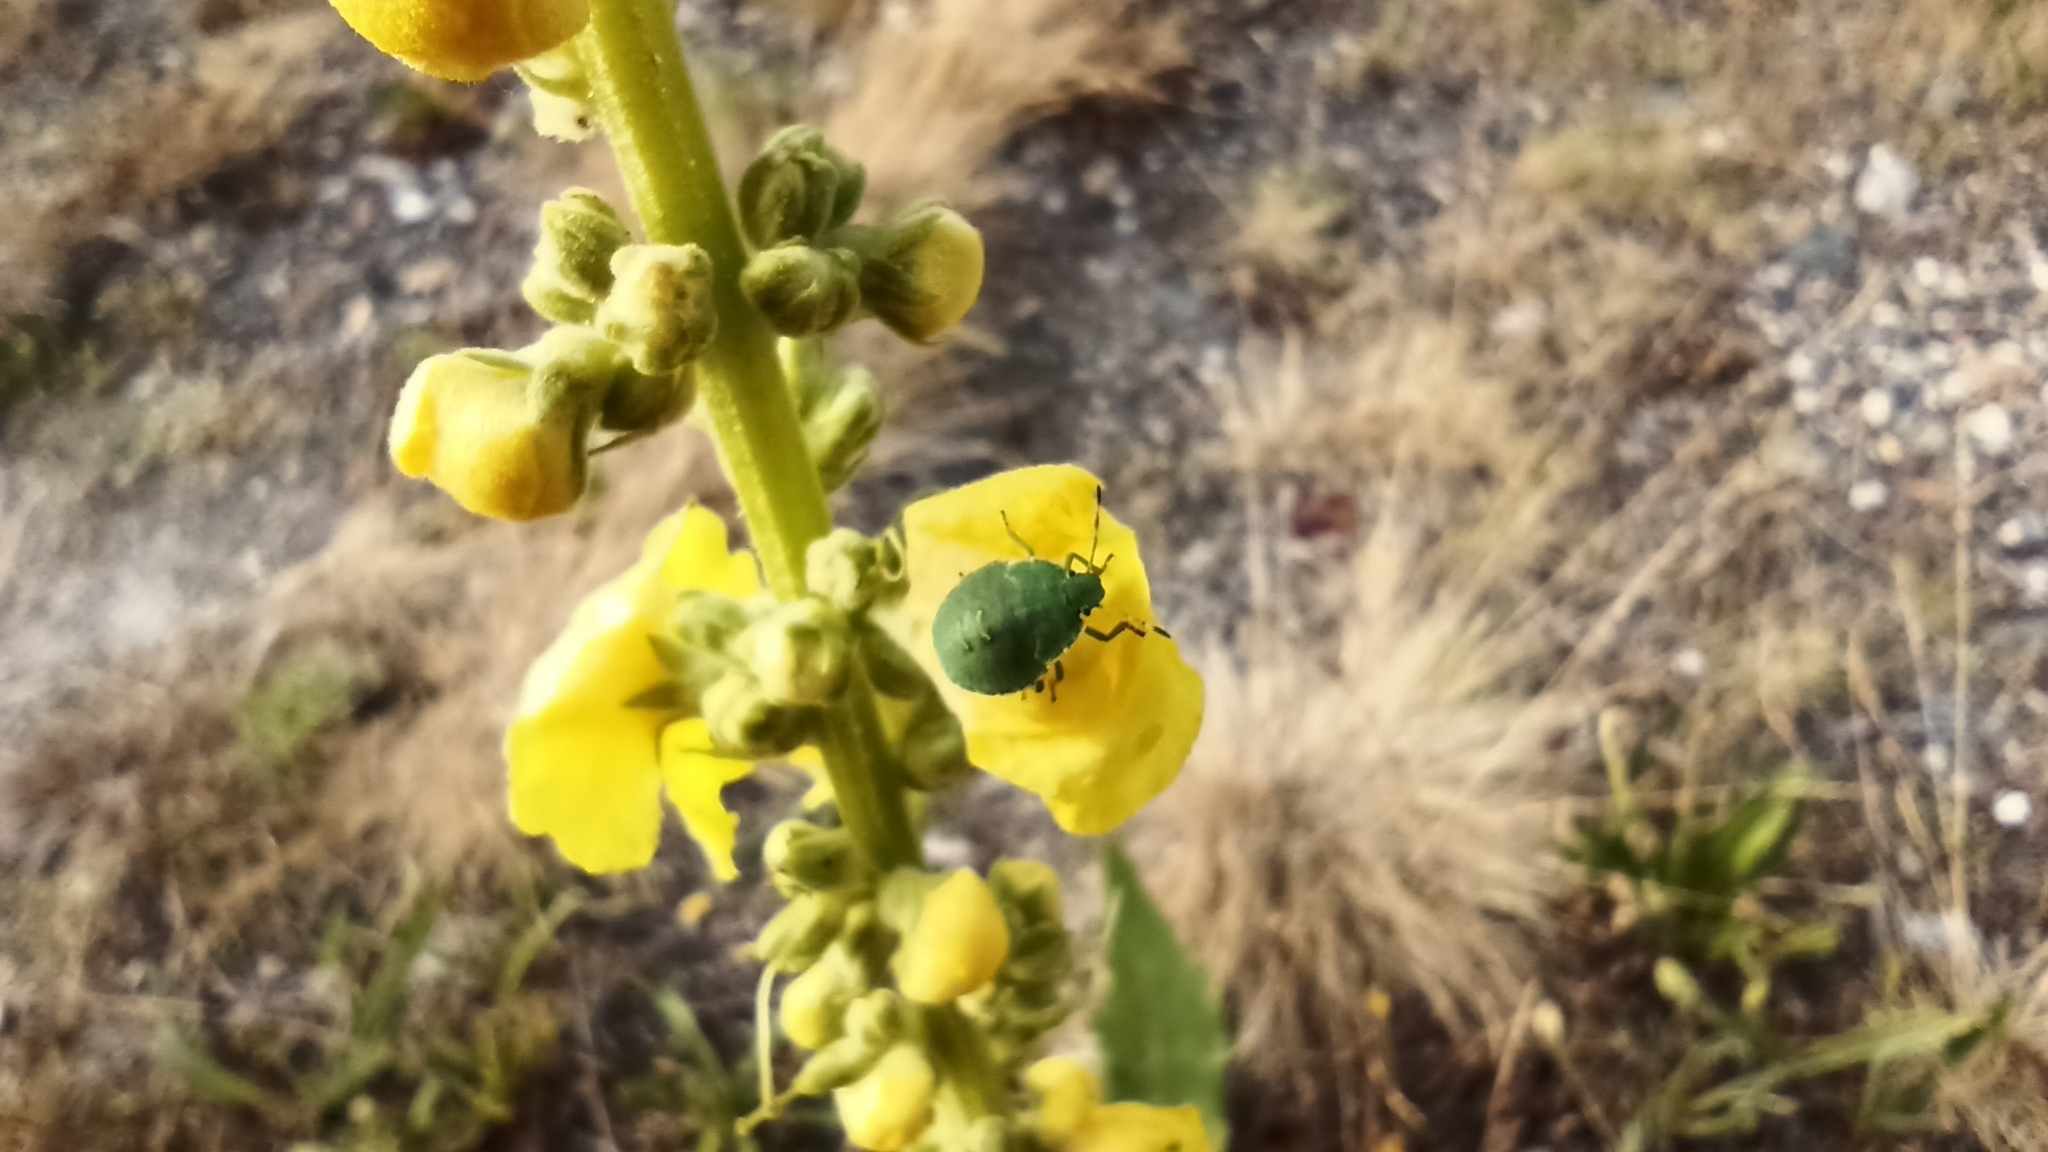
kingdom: Animalia
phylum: Arthropoda
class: Insecta
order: Hemiptera
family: Pentatomidae
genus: Palomena
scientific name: Palomena prasina
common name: Green shieldbug
